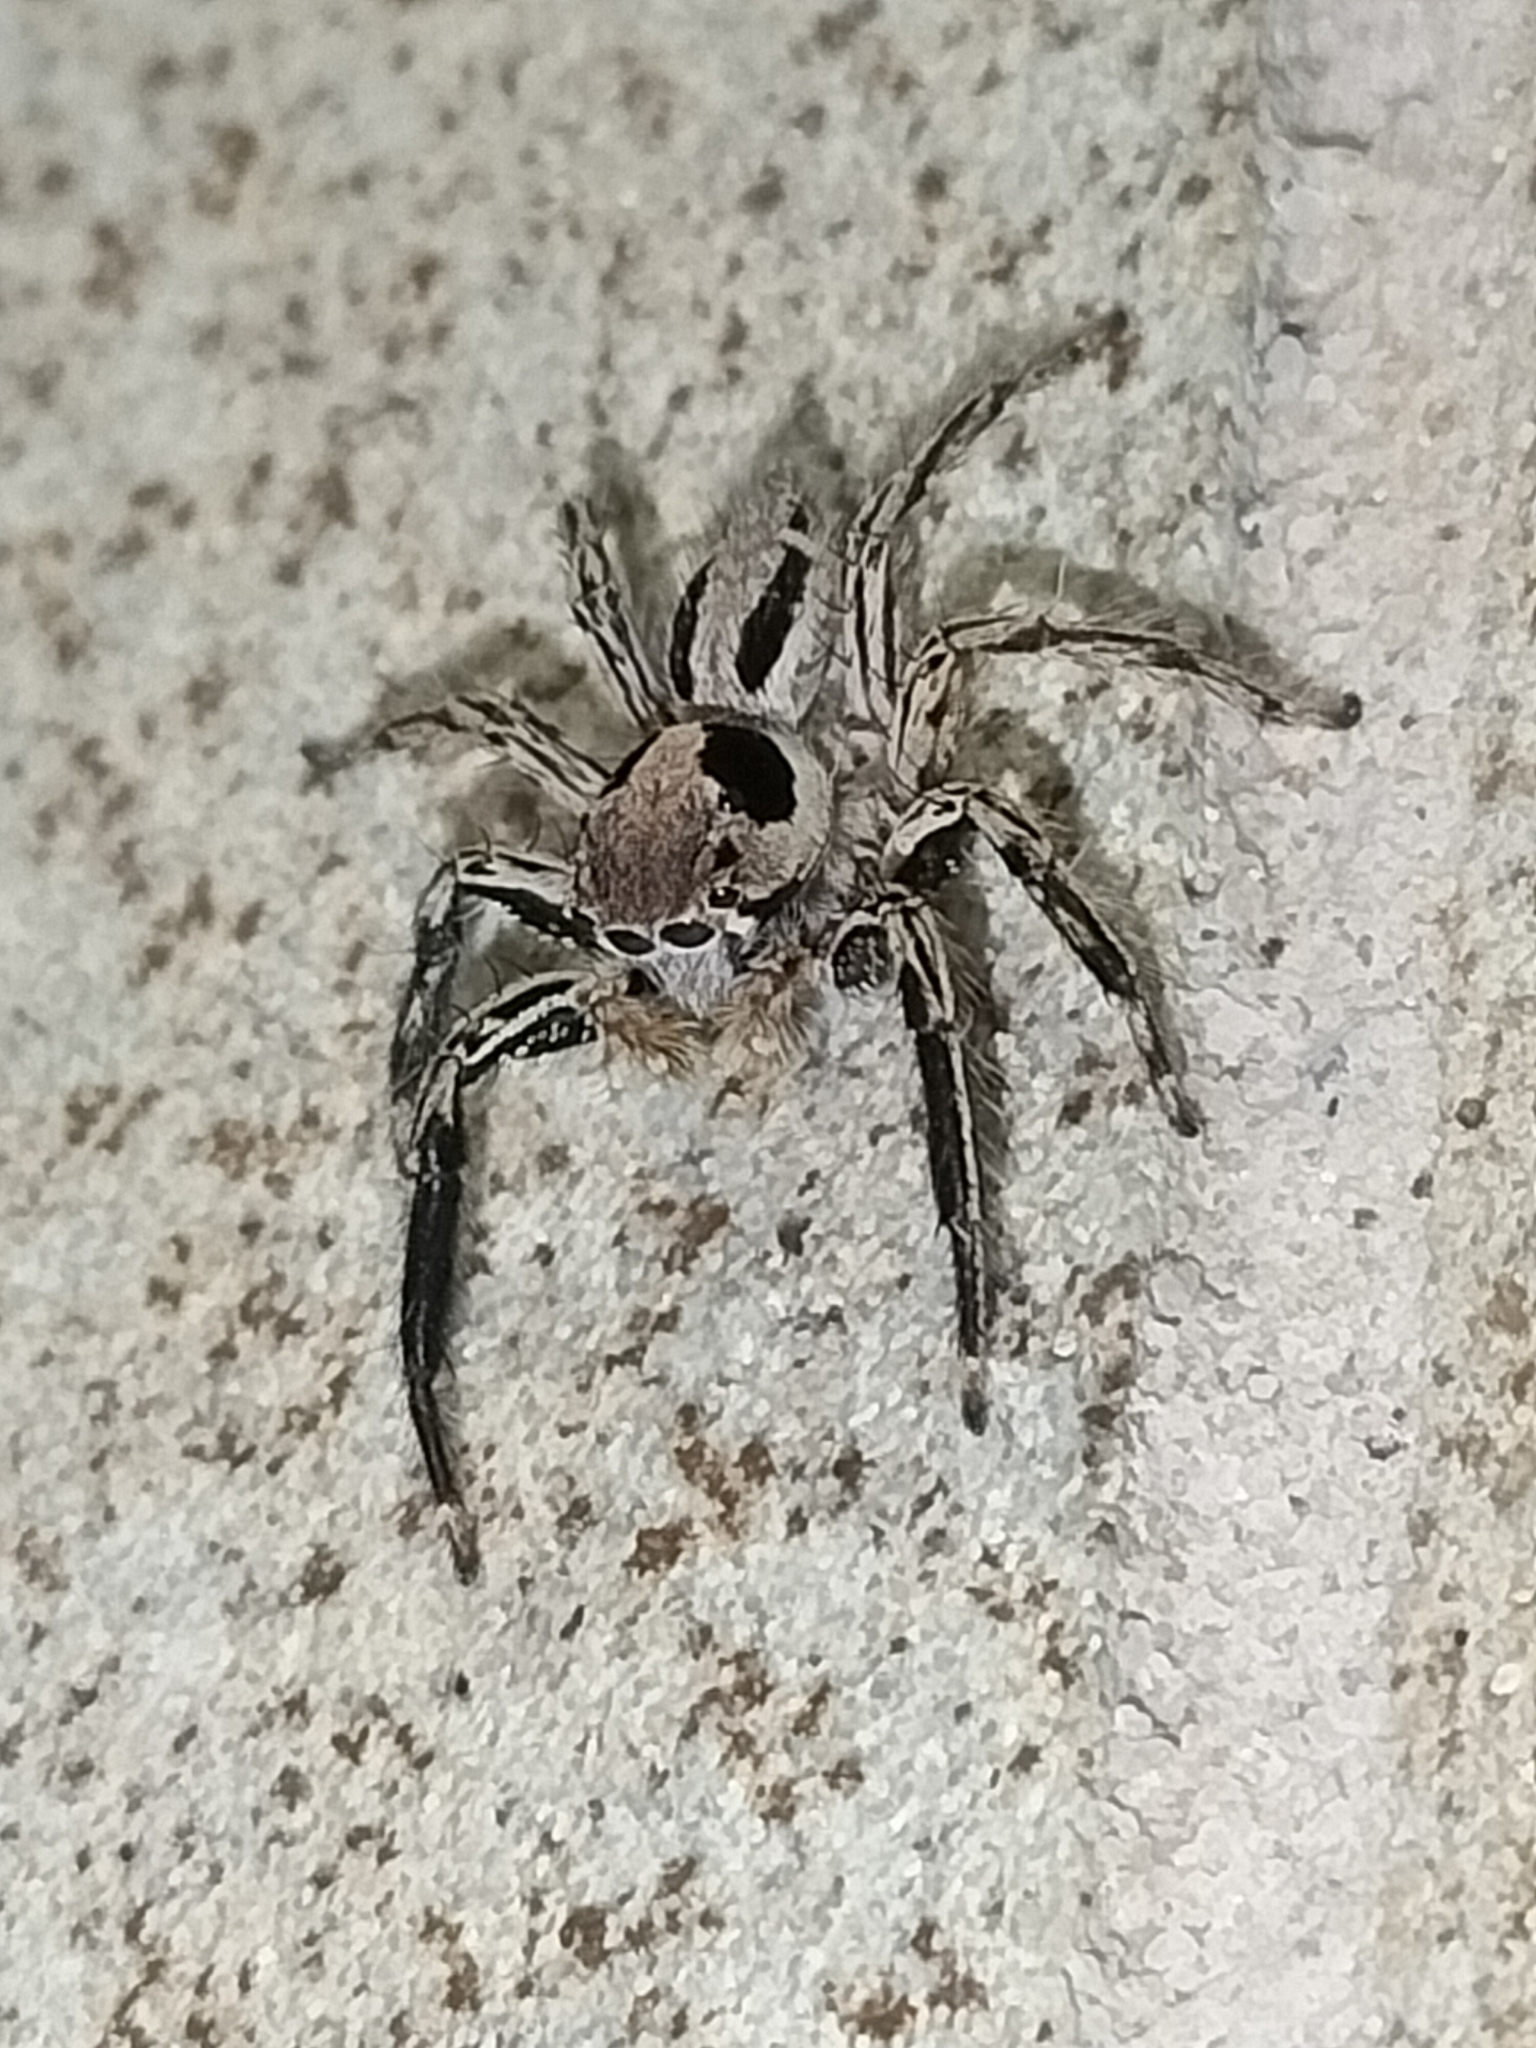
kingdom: Animalia
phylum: Arthropoda
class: Arachnida
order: Araneae
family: Salticidae
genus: Plexippus
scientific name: Plexippus petersi
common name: Jumping spider
